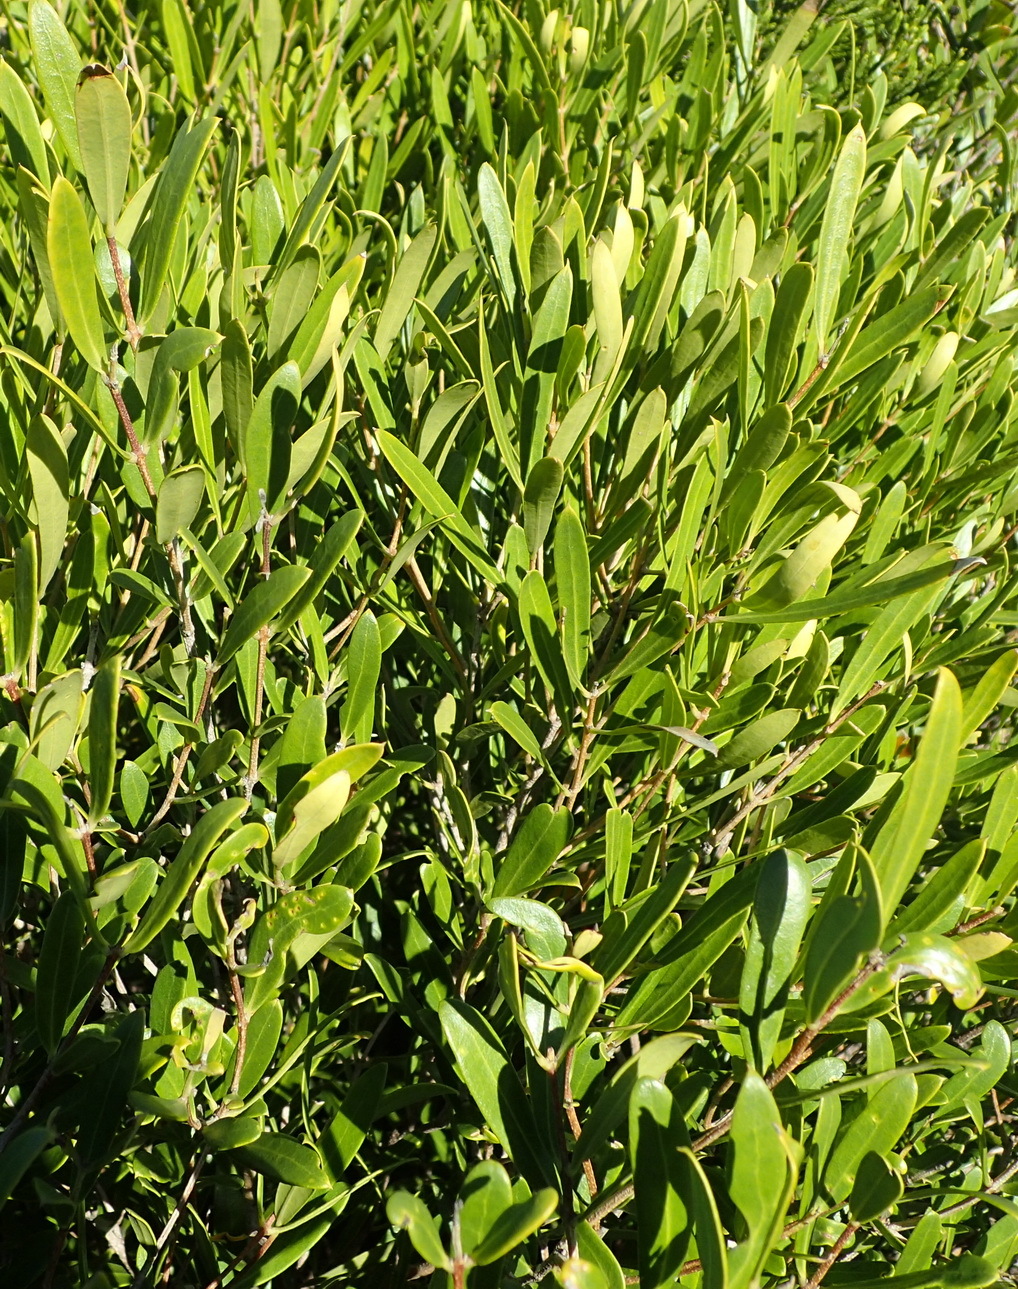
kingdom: Plantae
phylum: Tracheophyta
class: Magnoliopsida
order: Lamiales
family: Oleaceae
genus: Olea
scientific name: Olea exasperata
